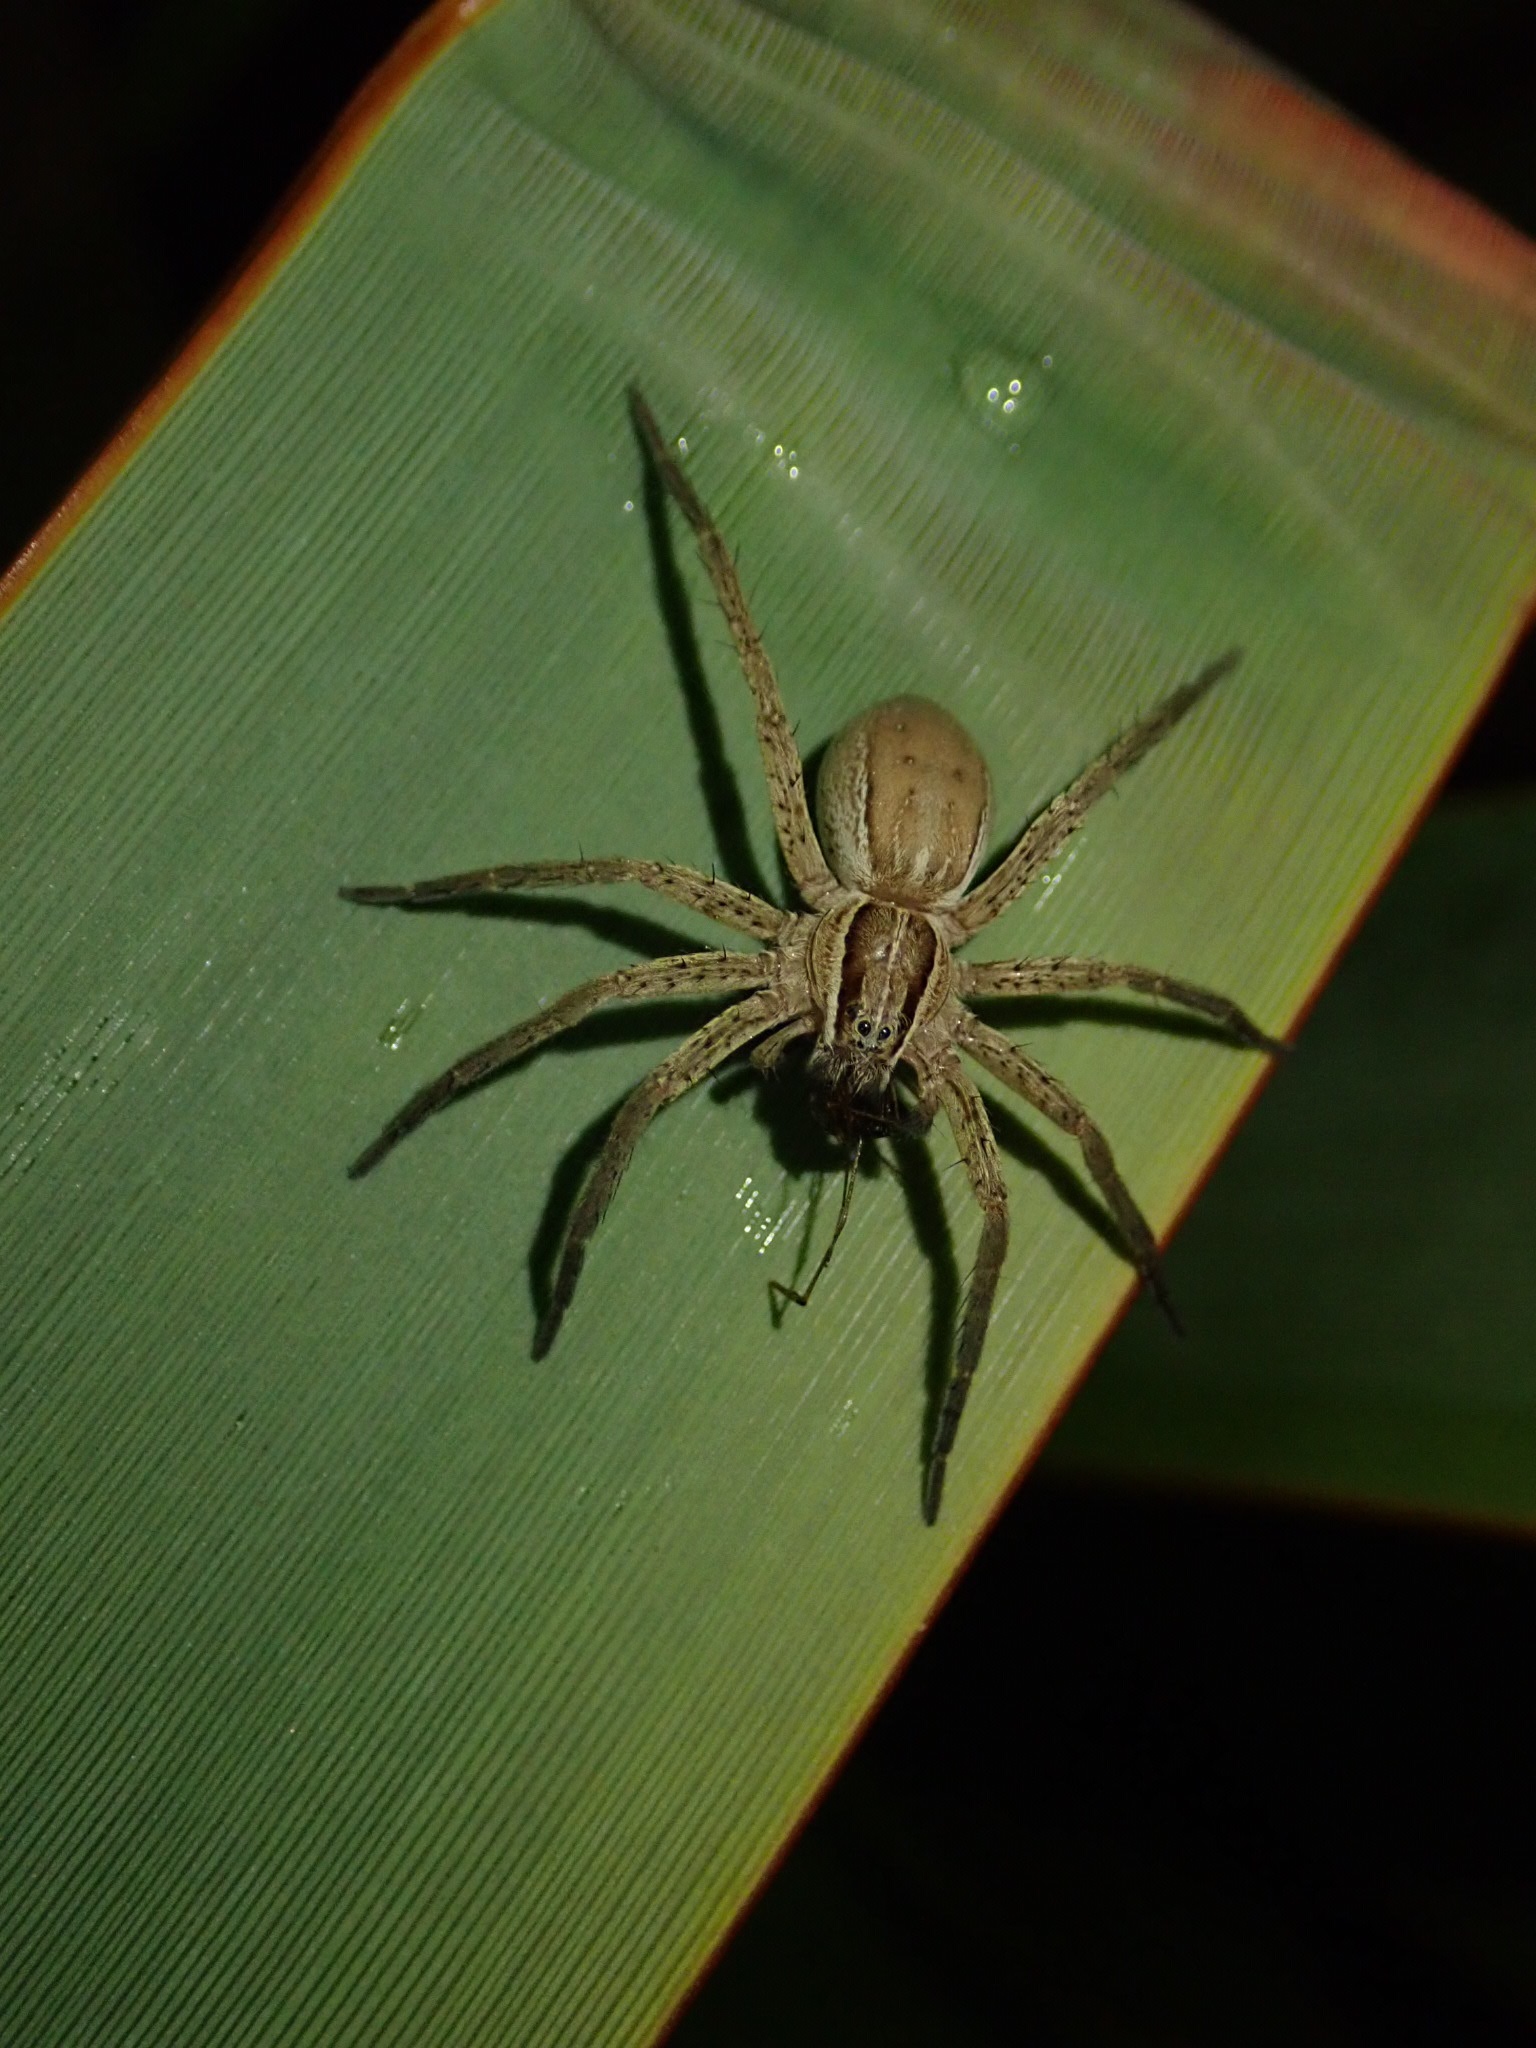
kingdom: Animalia
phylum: Arthropoda
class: Arachnida
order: Araneae
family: Pisauridae
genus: Dolomedes
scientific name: Dolomedes minor
